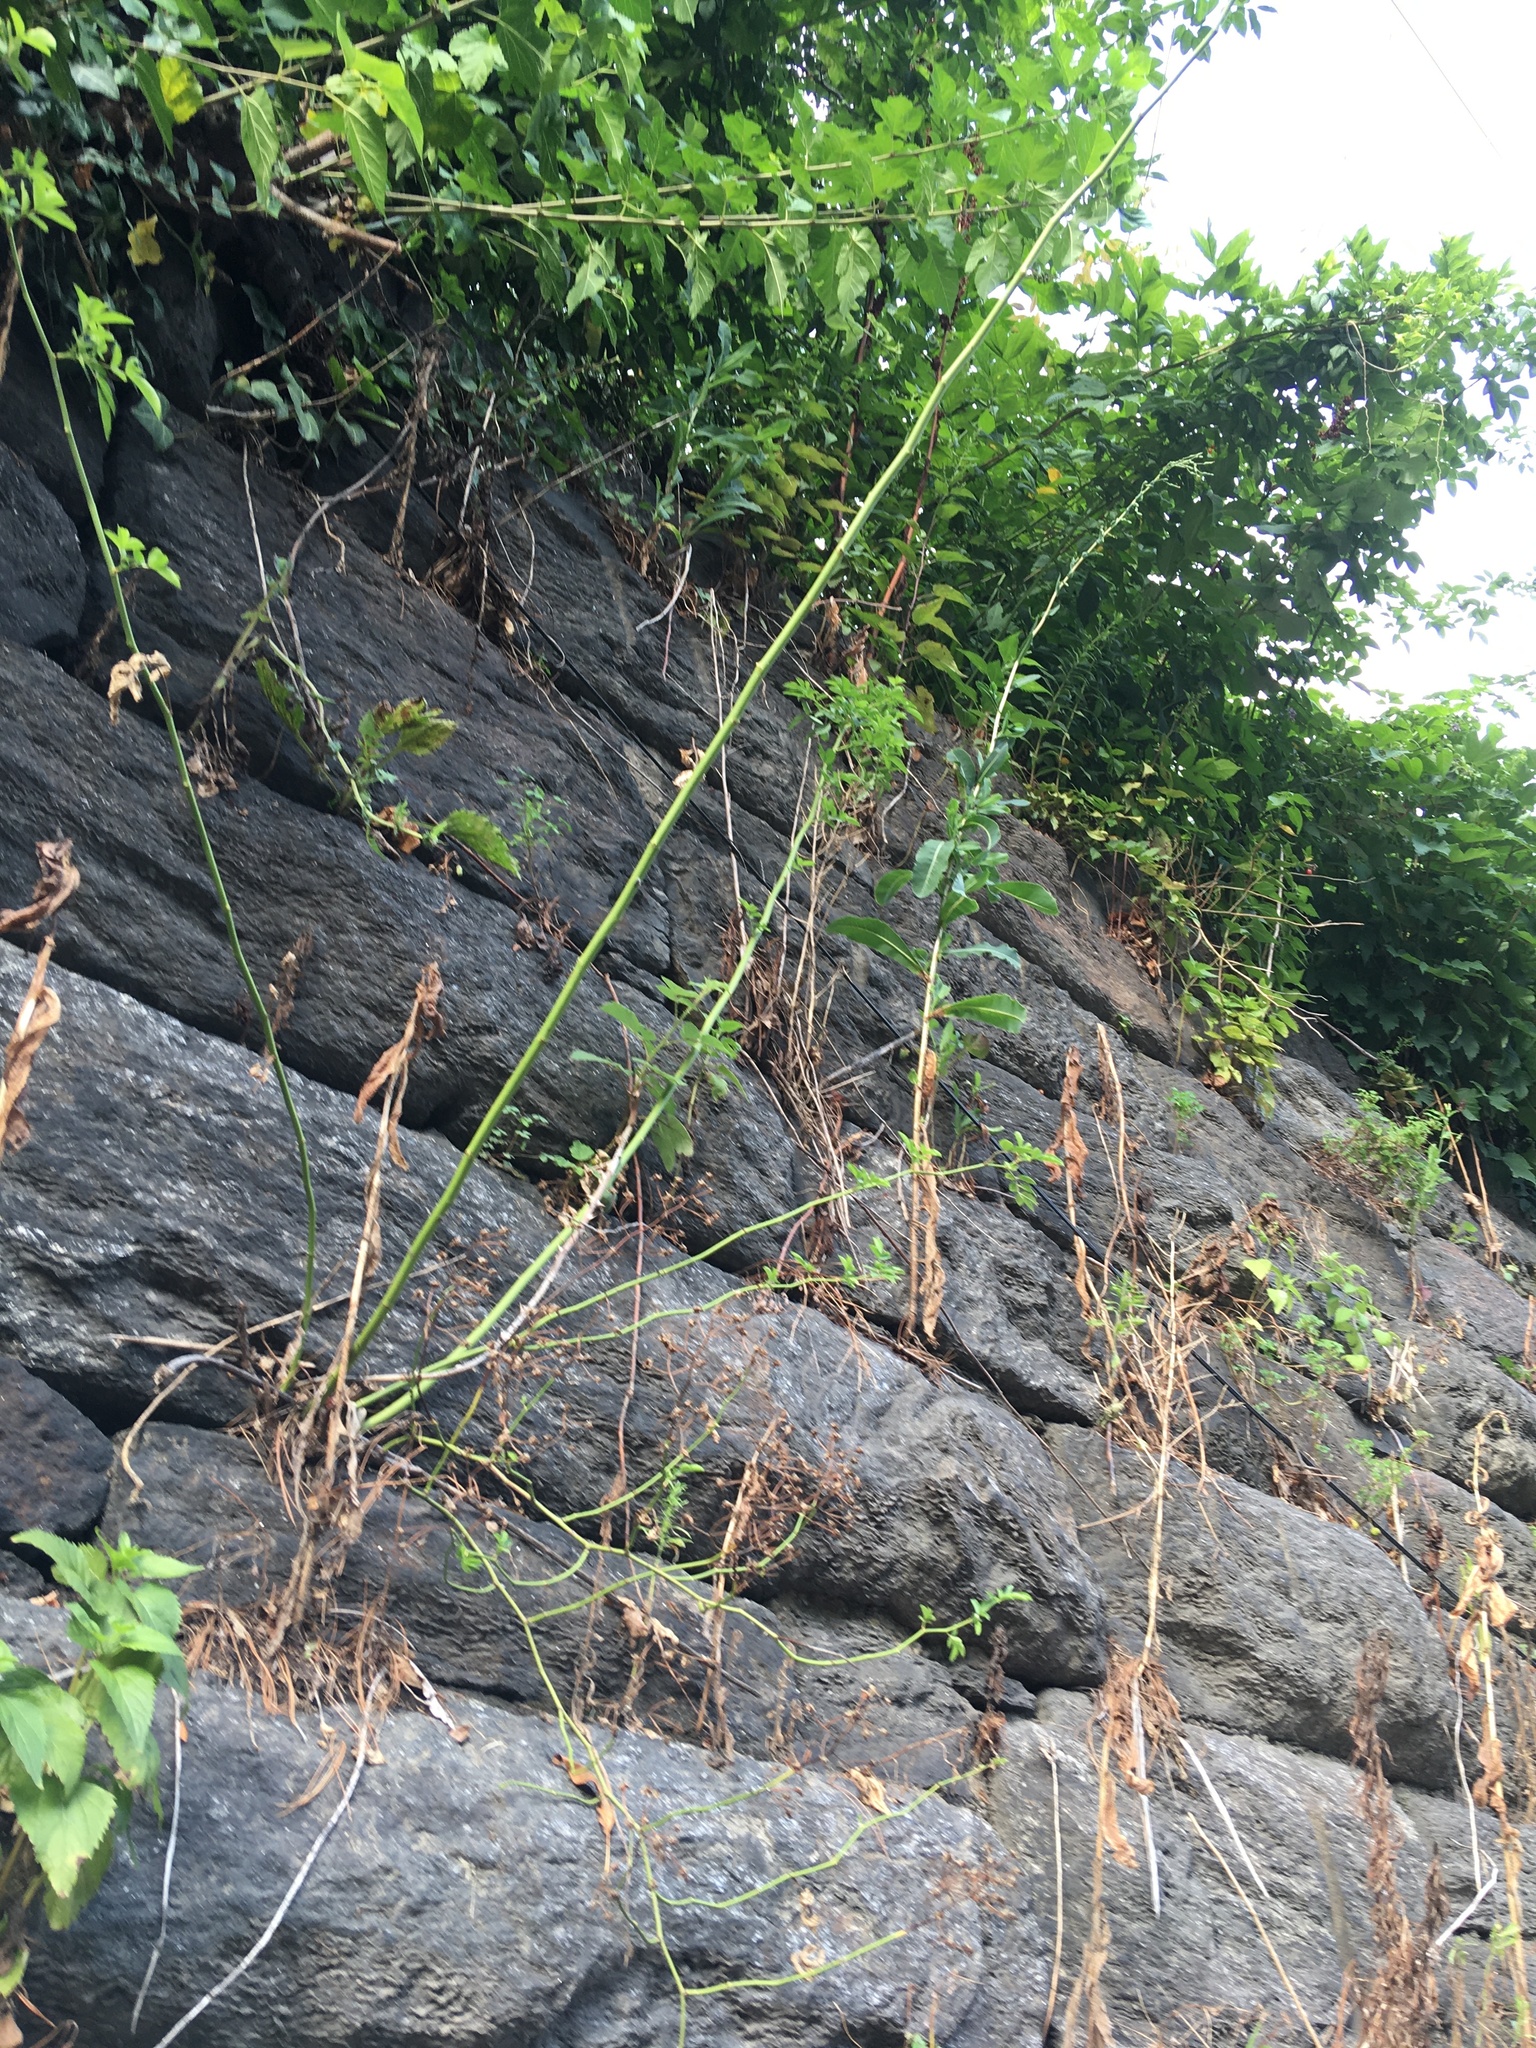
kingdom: Plantae
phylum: Tracheophyta
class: Magnoliopsida
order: Rosales
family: Rosaceae
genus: Rosa
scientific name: Rosa multiflora
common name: Multiflora rose
